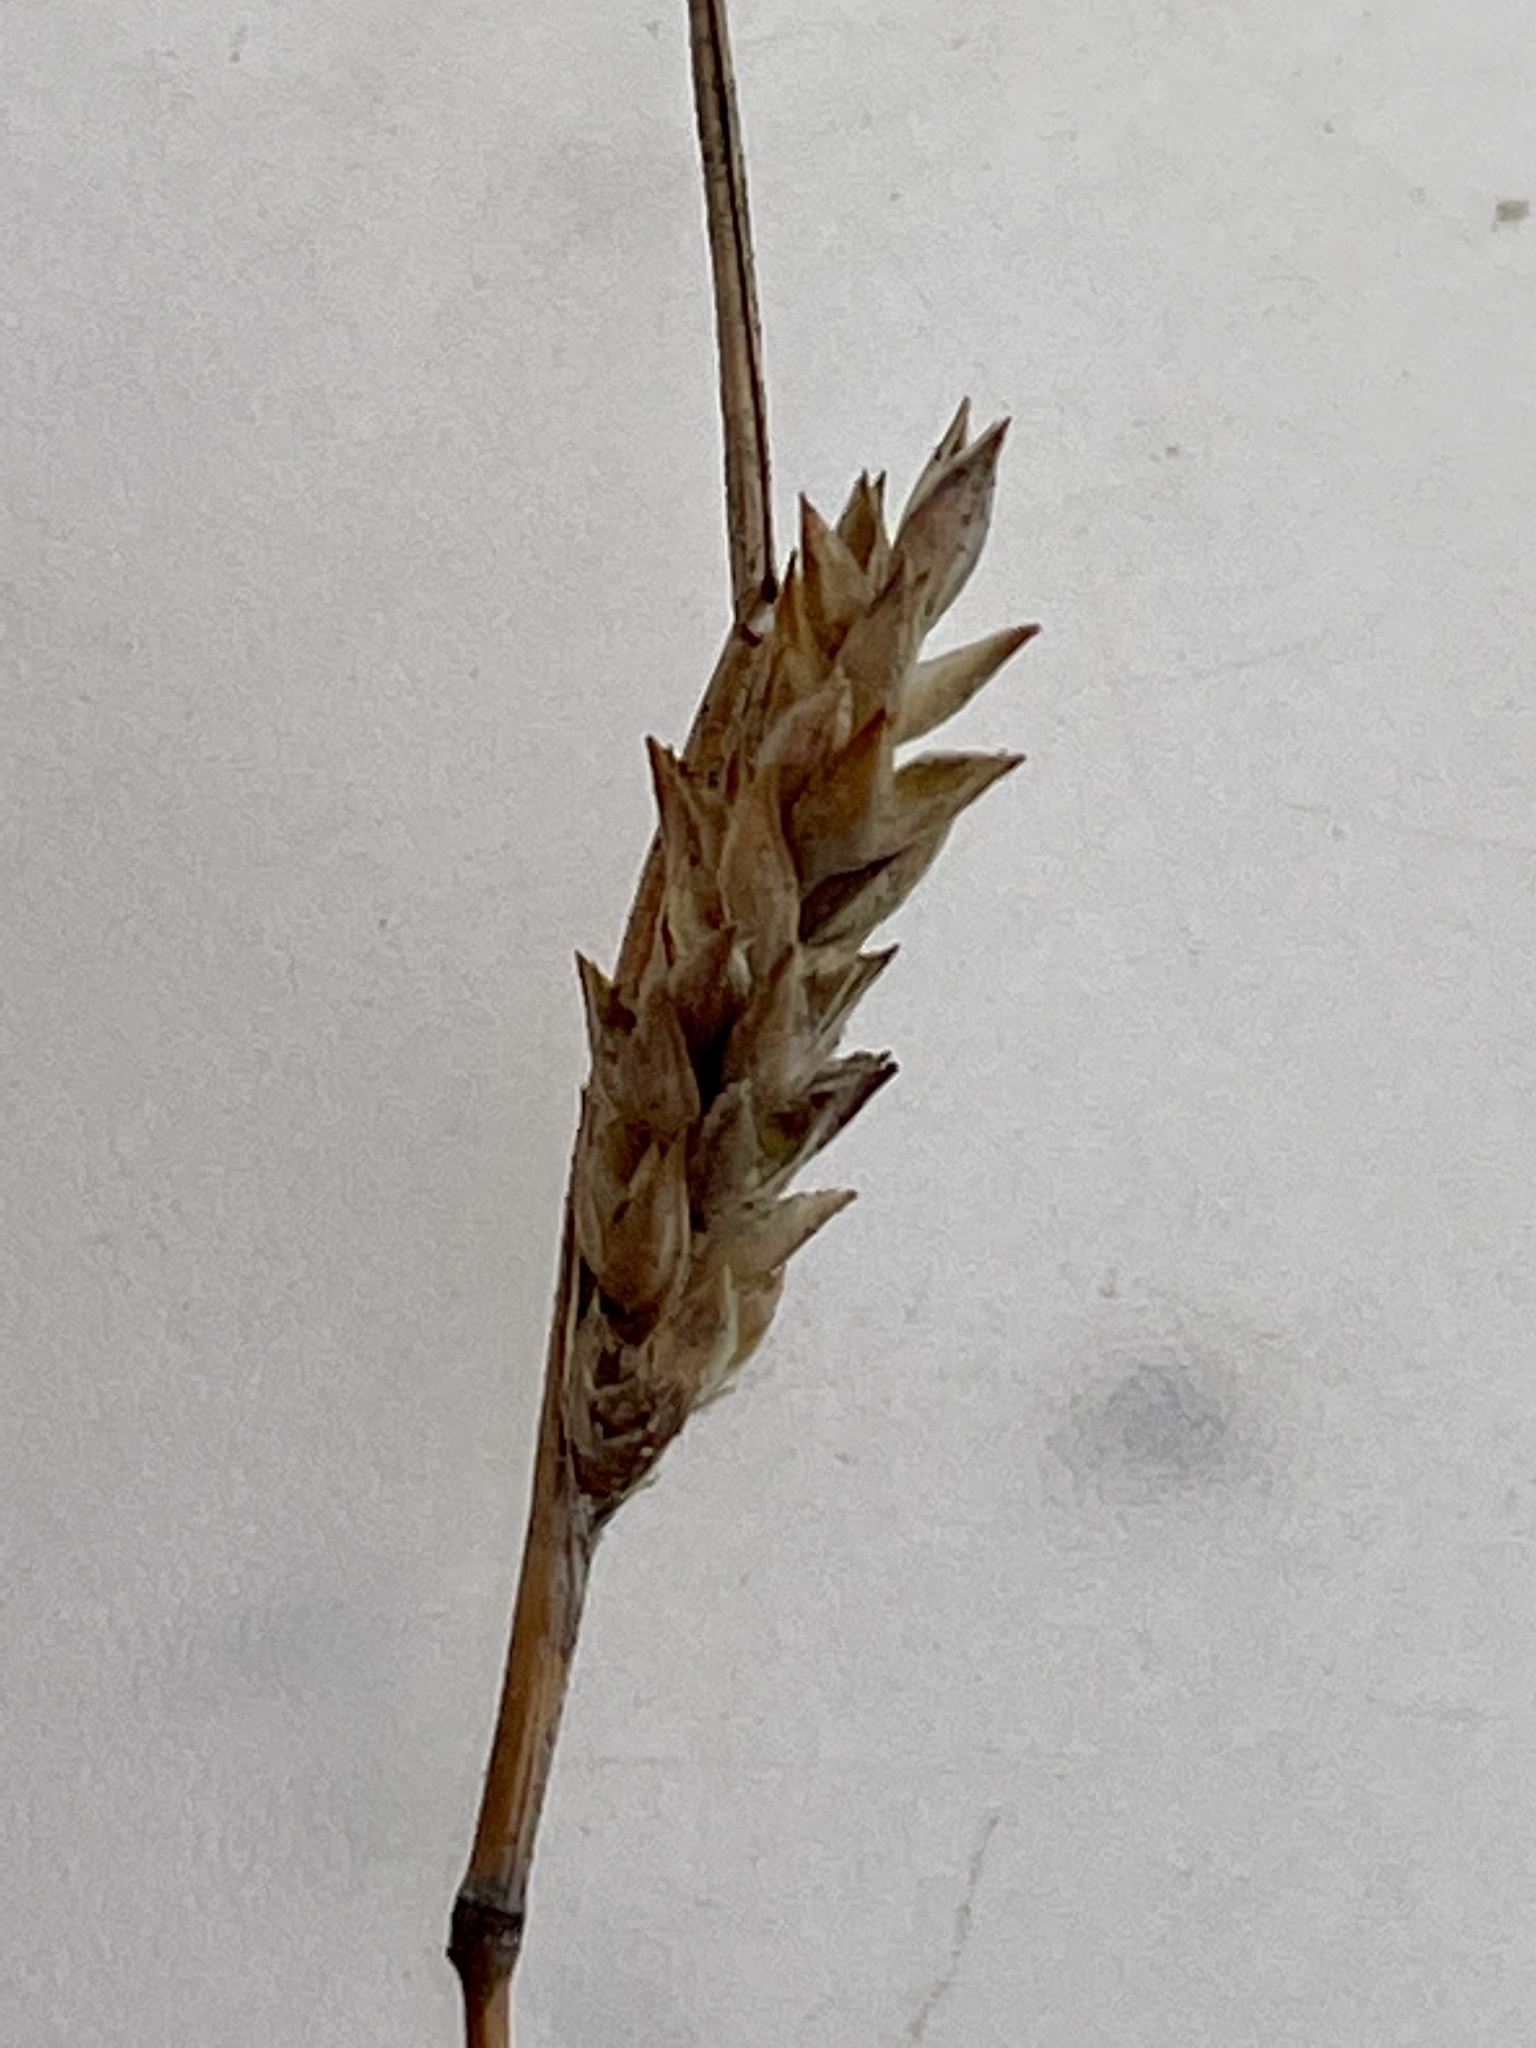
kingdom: Plantae
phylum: Tracheophyta
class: Liliopsida
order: Poales
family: Poaceae
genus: Tribolium
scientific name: Tribolium obliterum
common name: Capetown grass
